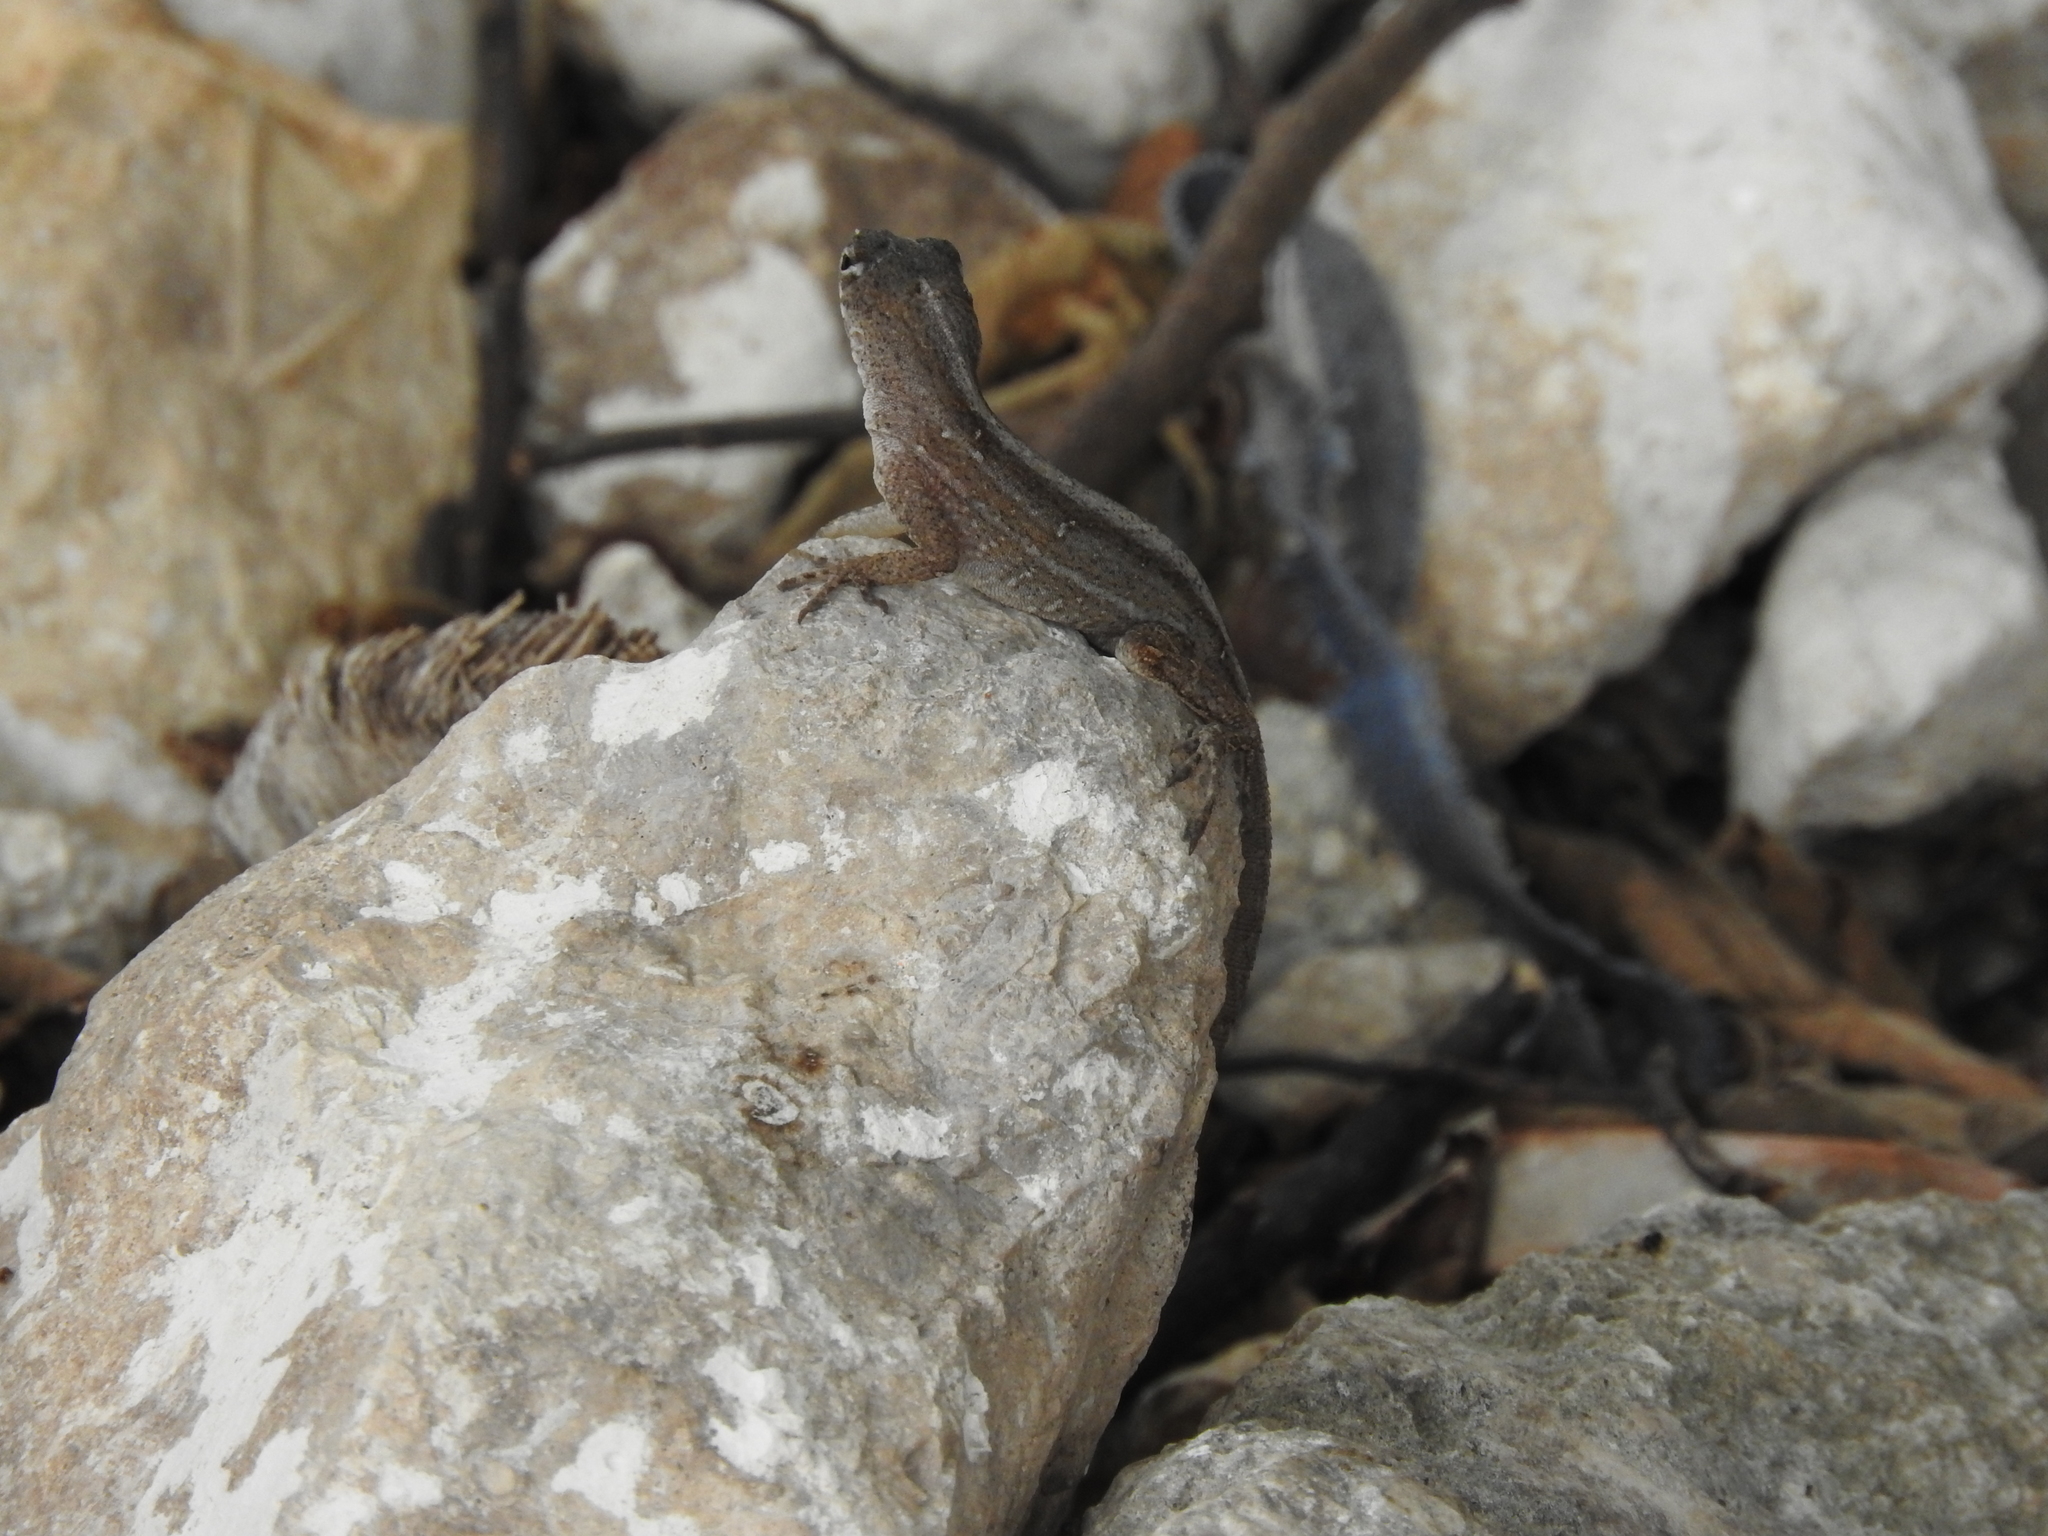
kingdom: Animalia
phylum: Chordata
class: Squamata
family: Dactyloidae
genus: Anolis
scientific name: Anolis sagrei
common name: Brown anole
